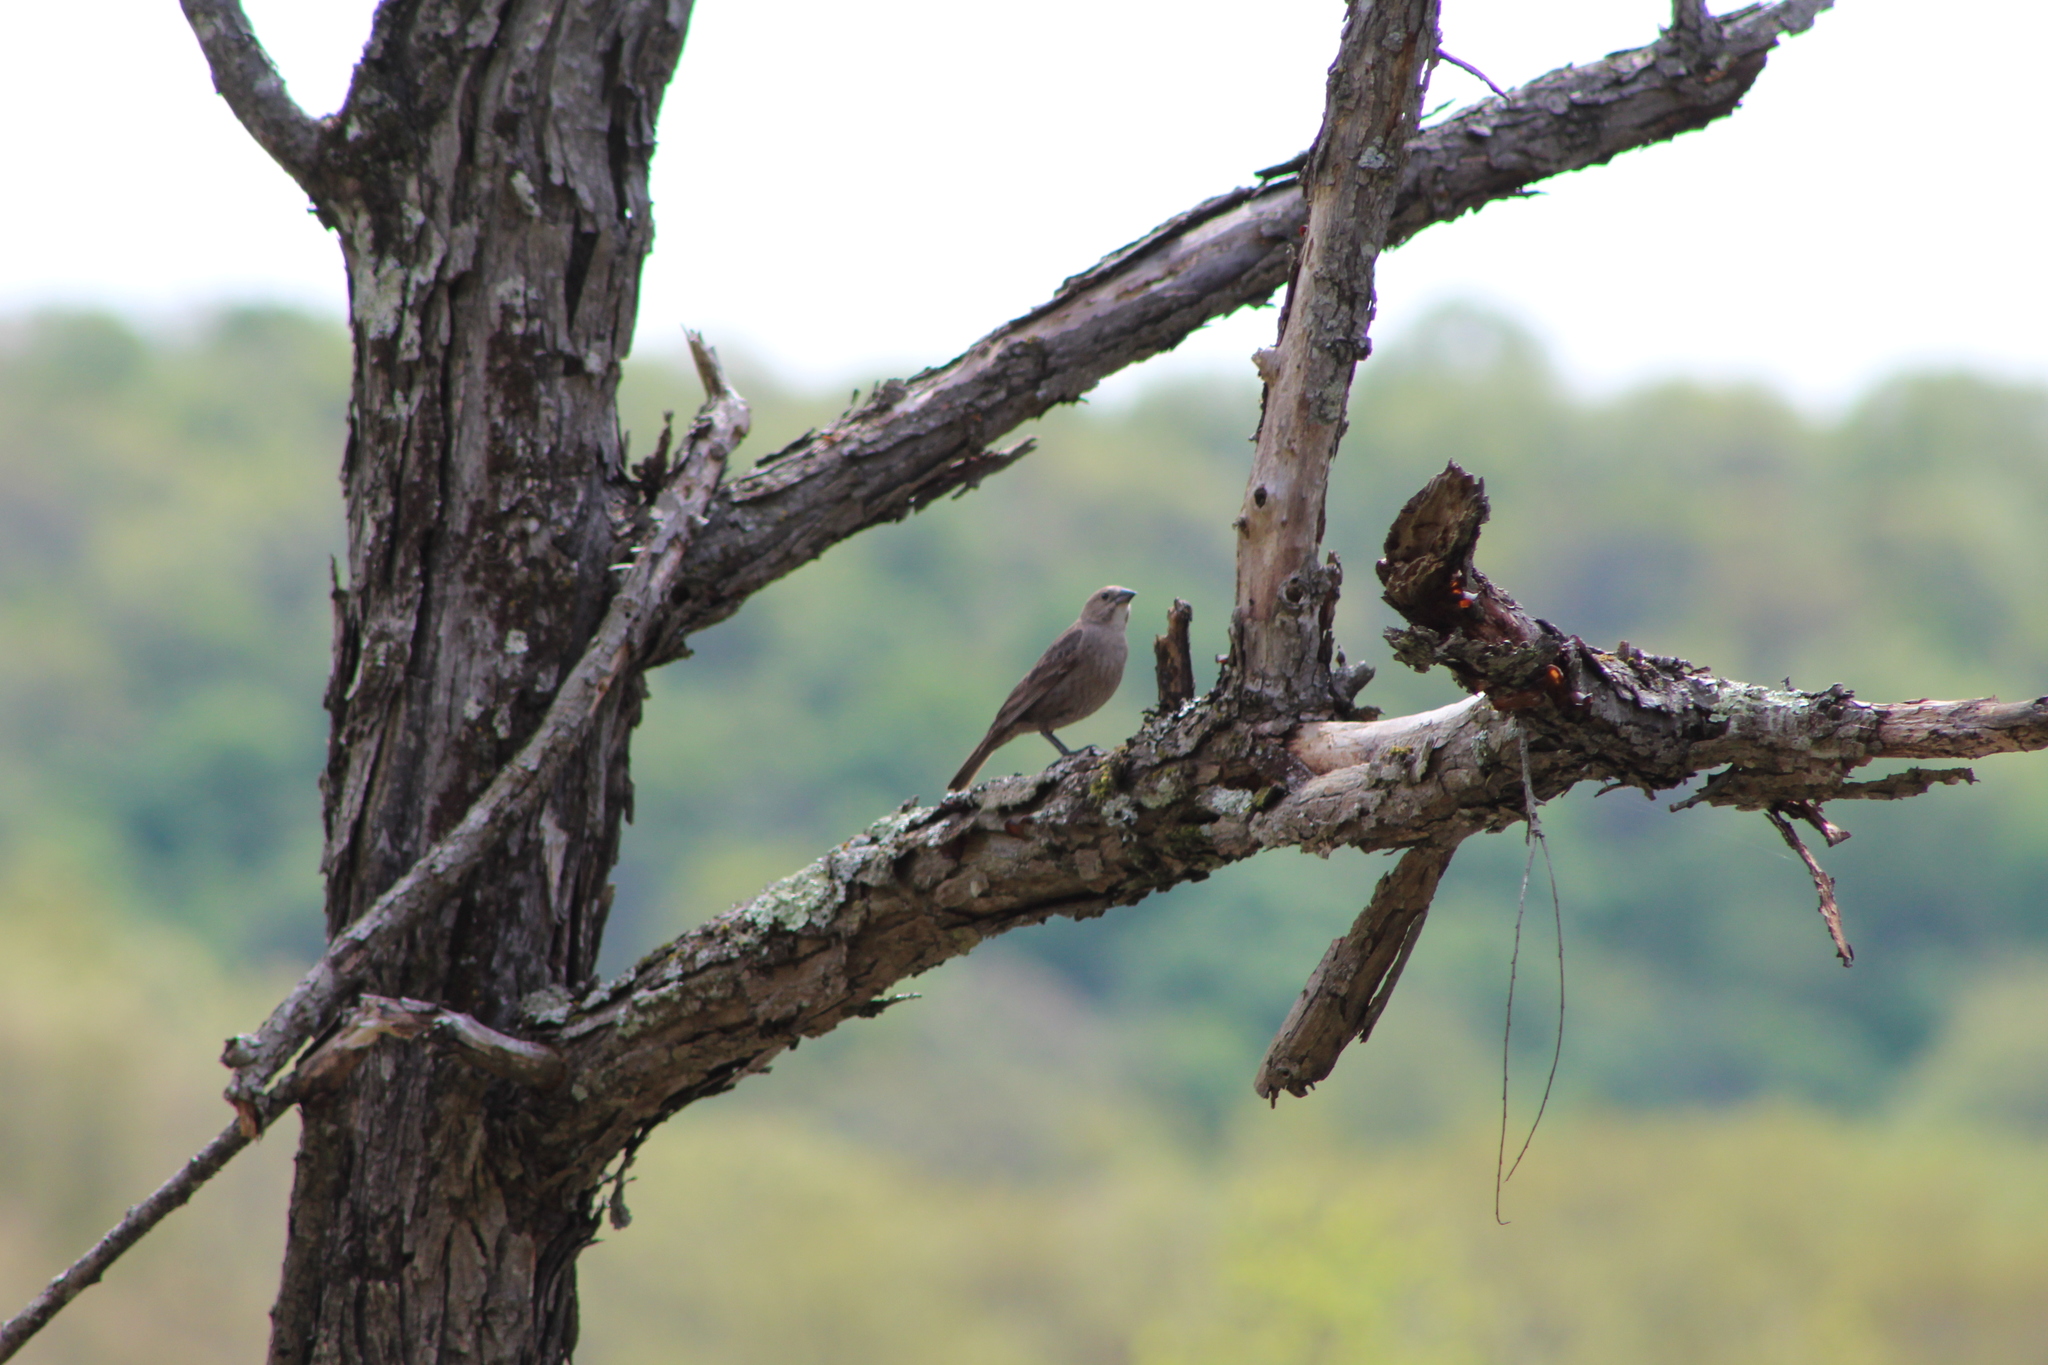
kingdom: Animalia
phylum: Chordata
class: Aves
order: Passeriformes
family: Icteridae
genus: Molothrus
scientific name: Molothrus ater
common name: Brown-headed cowbird
